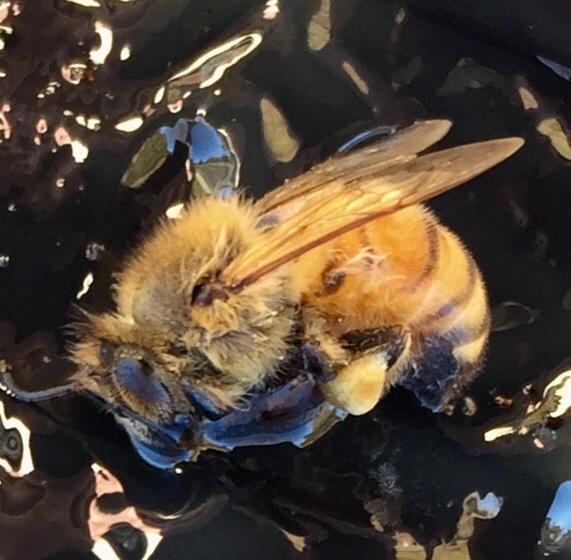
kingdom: Animalia
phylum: Arthropoda
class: Insecta
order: Hymenoptera
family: Apidae
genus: Apis
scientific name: Apis mellifera
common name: Honey bee
